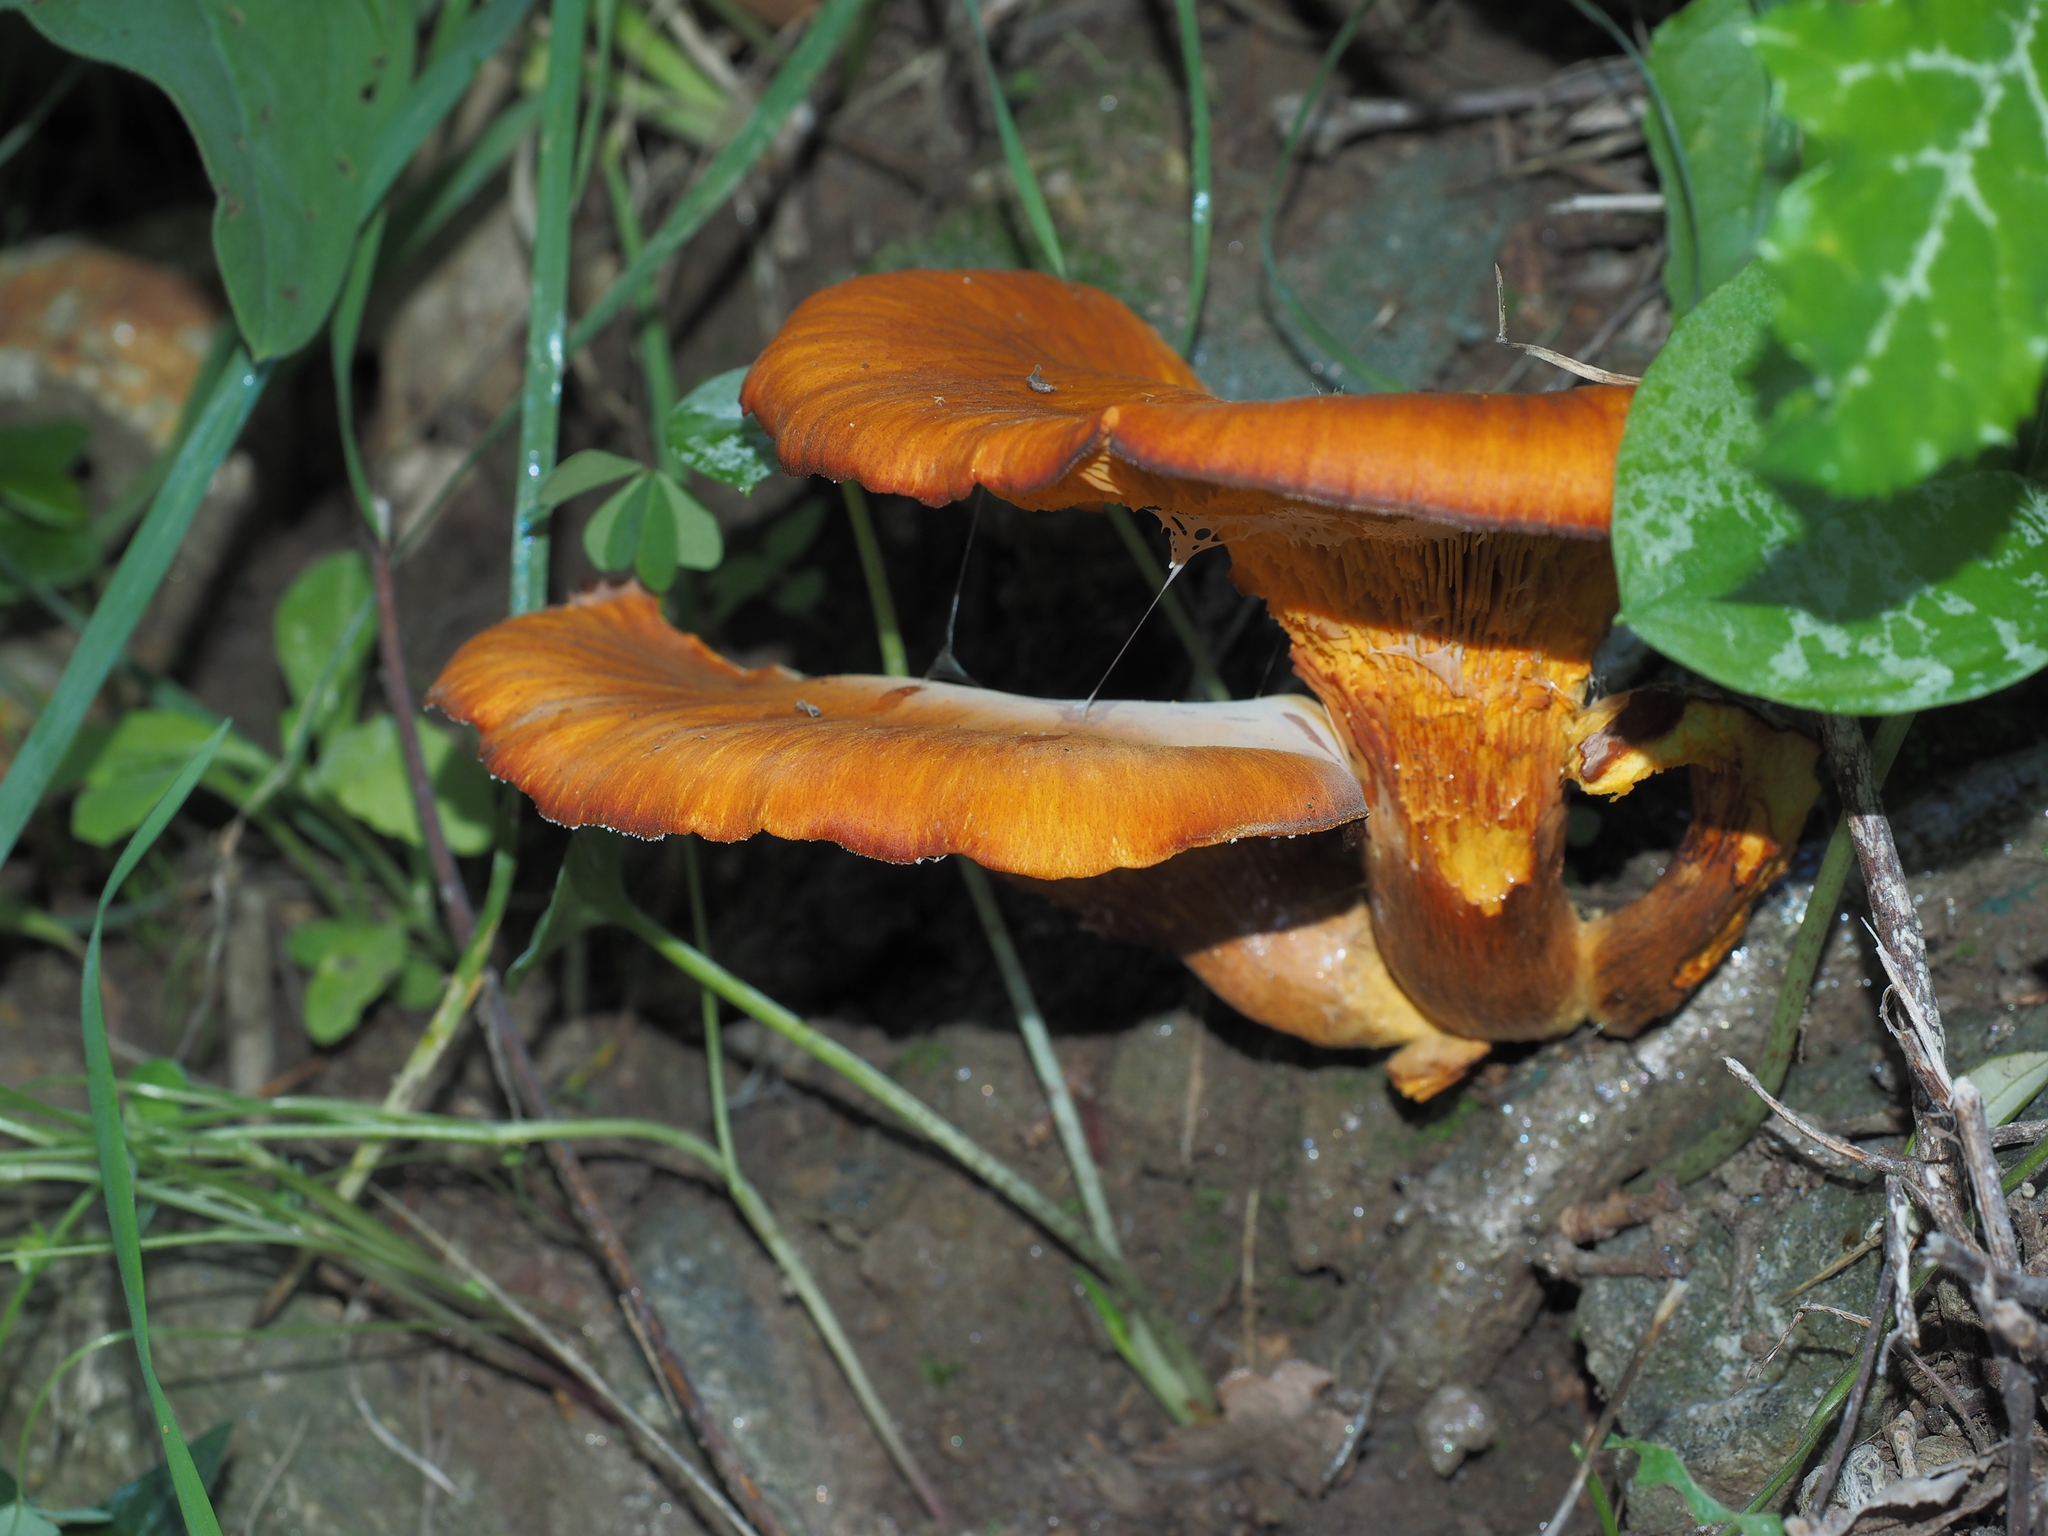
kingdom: Fungi
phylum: Basidiomycota
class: Agaricomycetes
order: Agaricales
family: Omphalotaceae
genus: Omphalotus
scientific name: Omphalotus olearius
